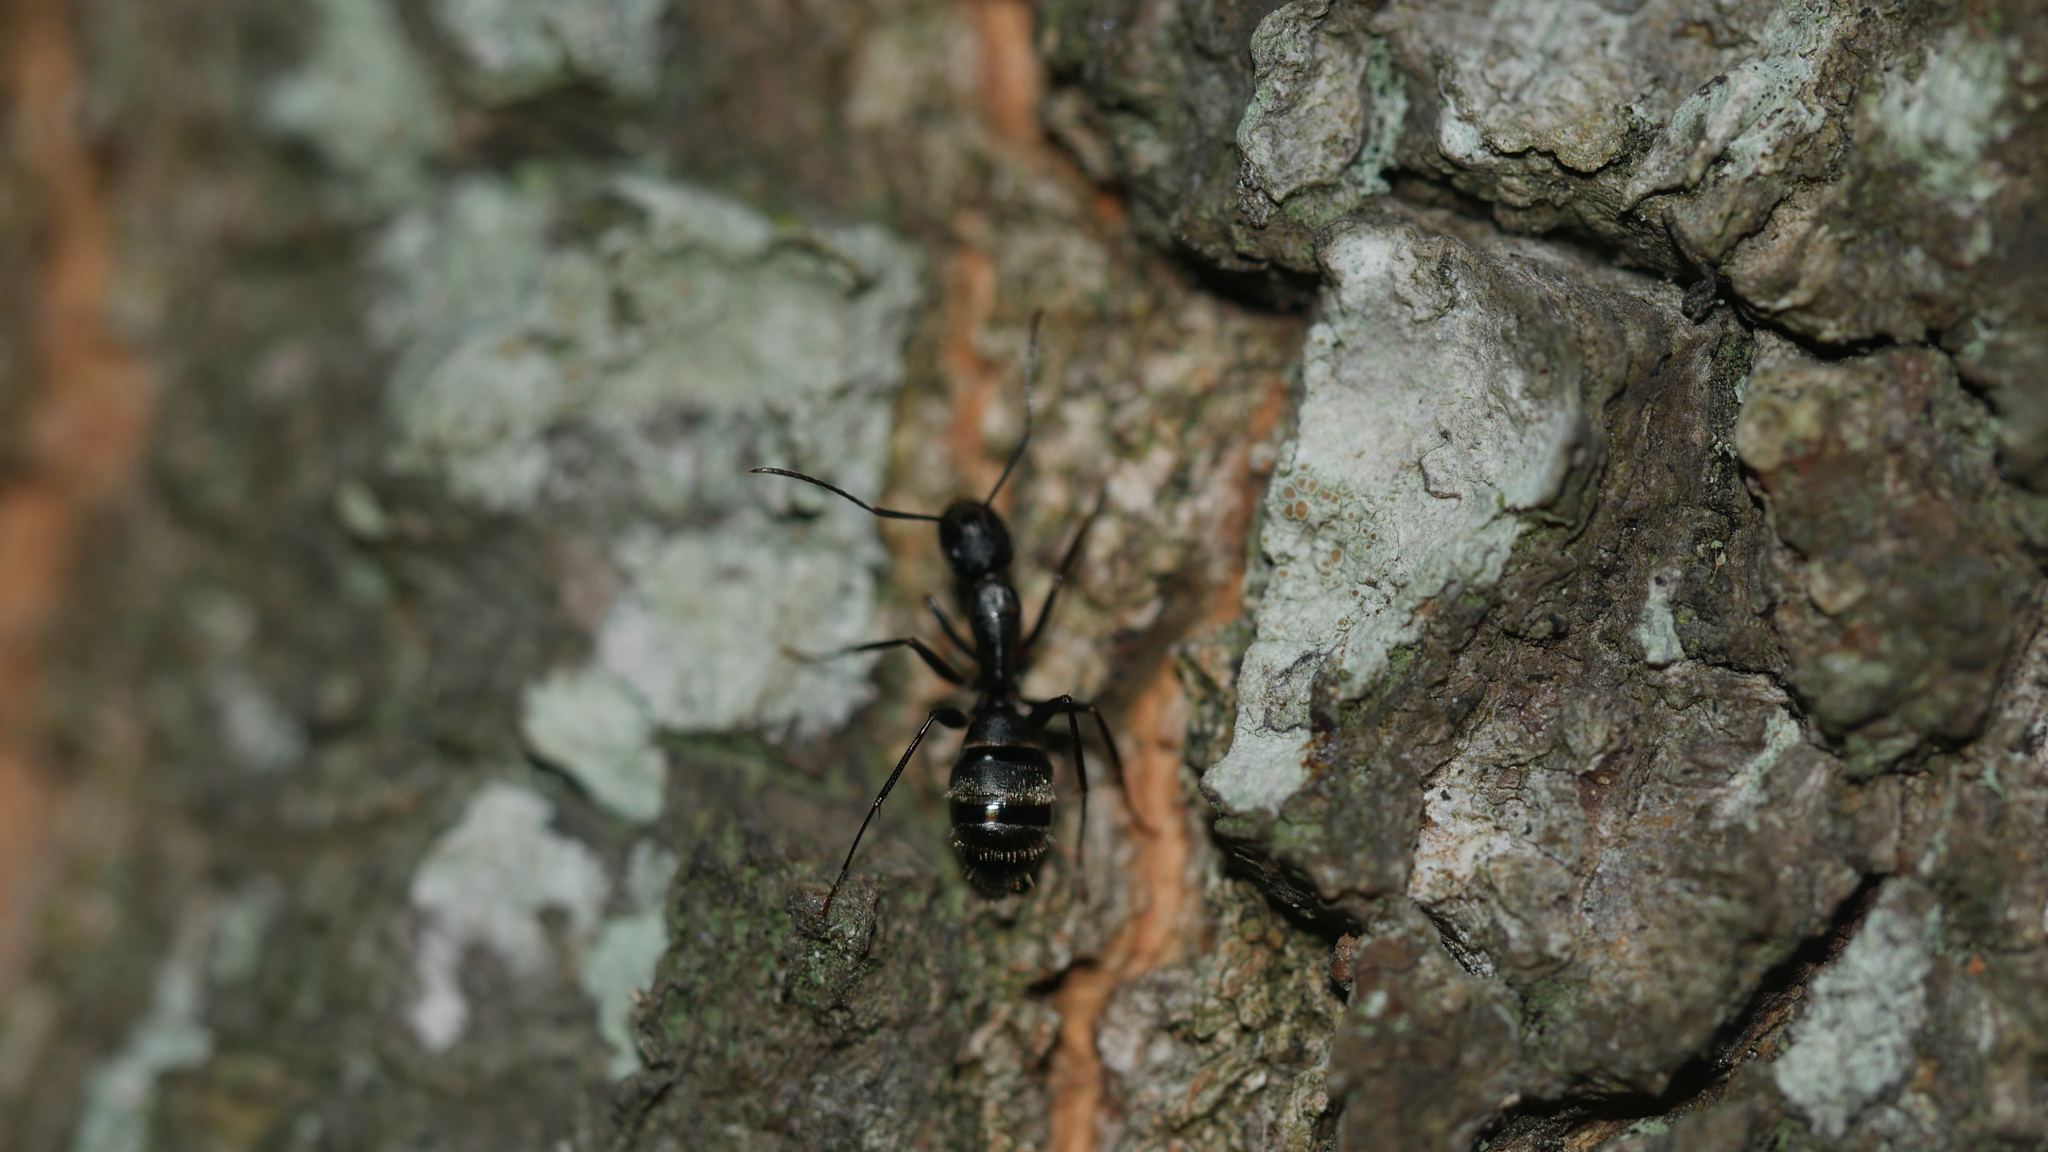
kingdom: Animalia
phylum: Arthropoda
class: Insecta
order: Hymenoptera
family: Formicidae
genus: Camponotus
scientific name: Camponotus pennsylvanicus
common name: Black carpenter ant
